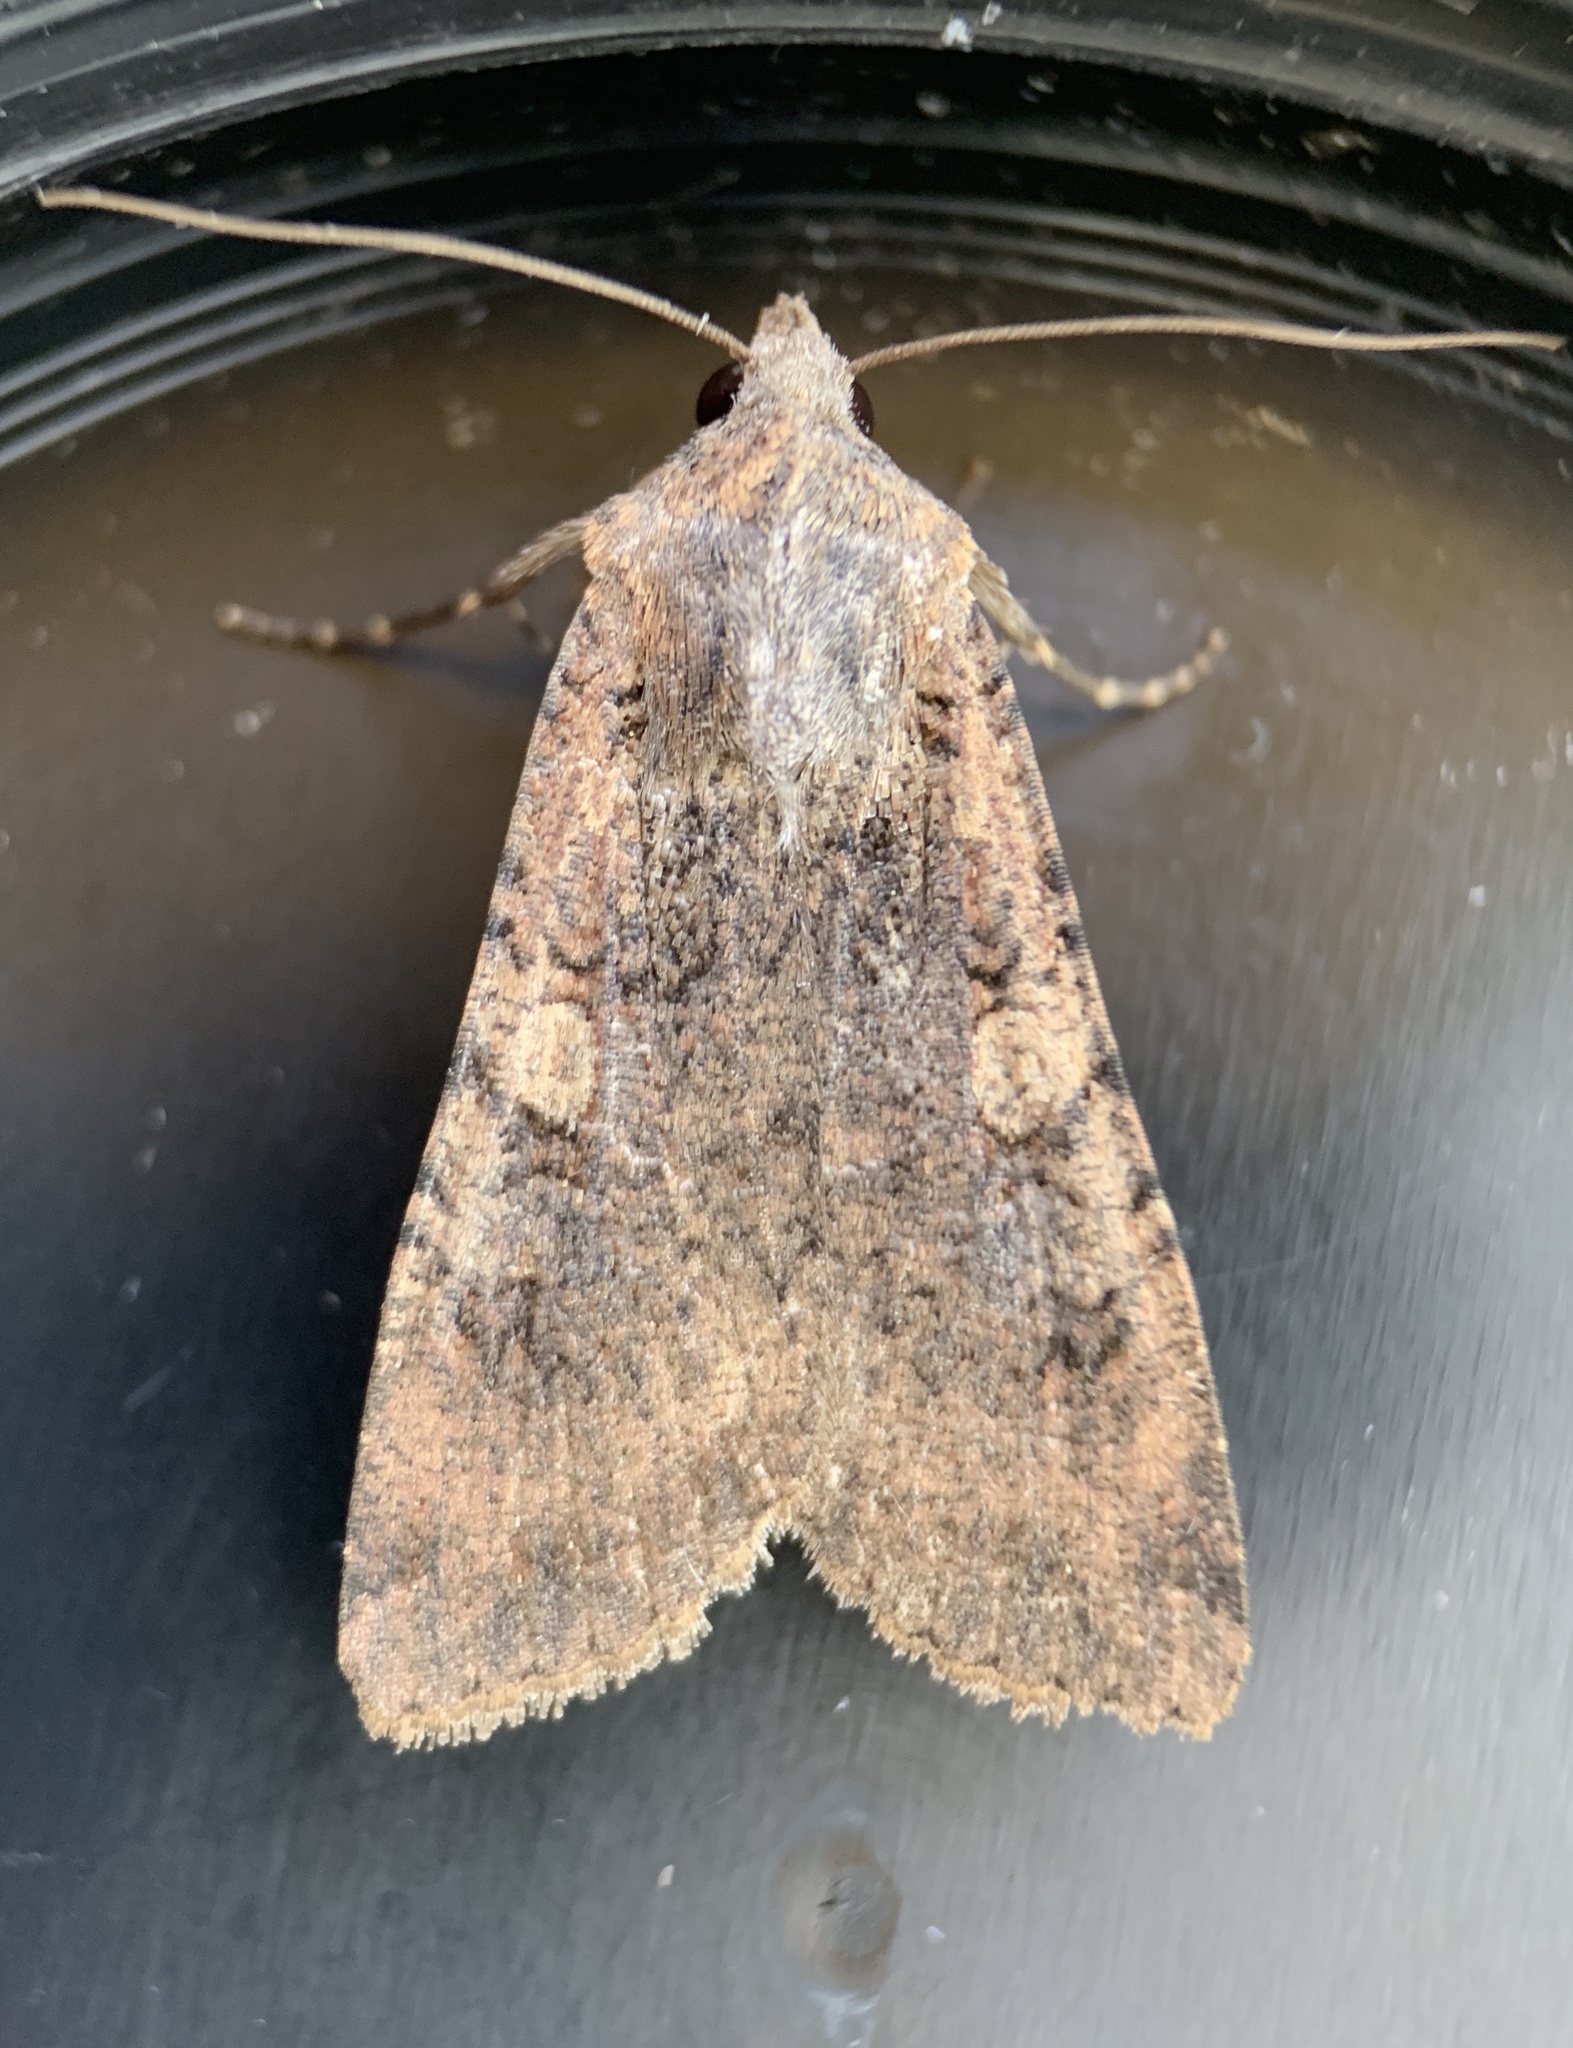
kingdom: Animalia
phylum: Arthropoda
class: Insecta
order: Lepidoptera
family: Noctuidae
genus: Peridroma
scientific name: Peridroma saucia
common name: Pearly underwing
